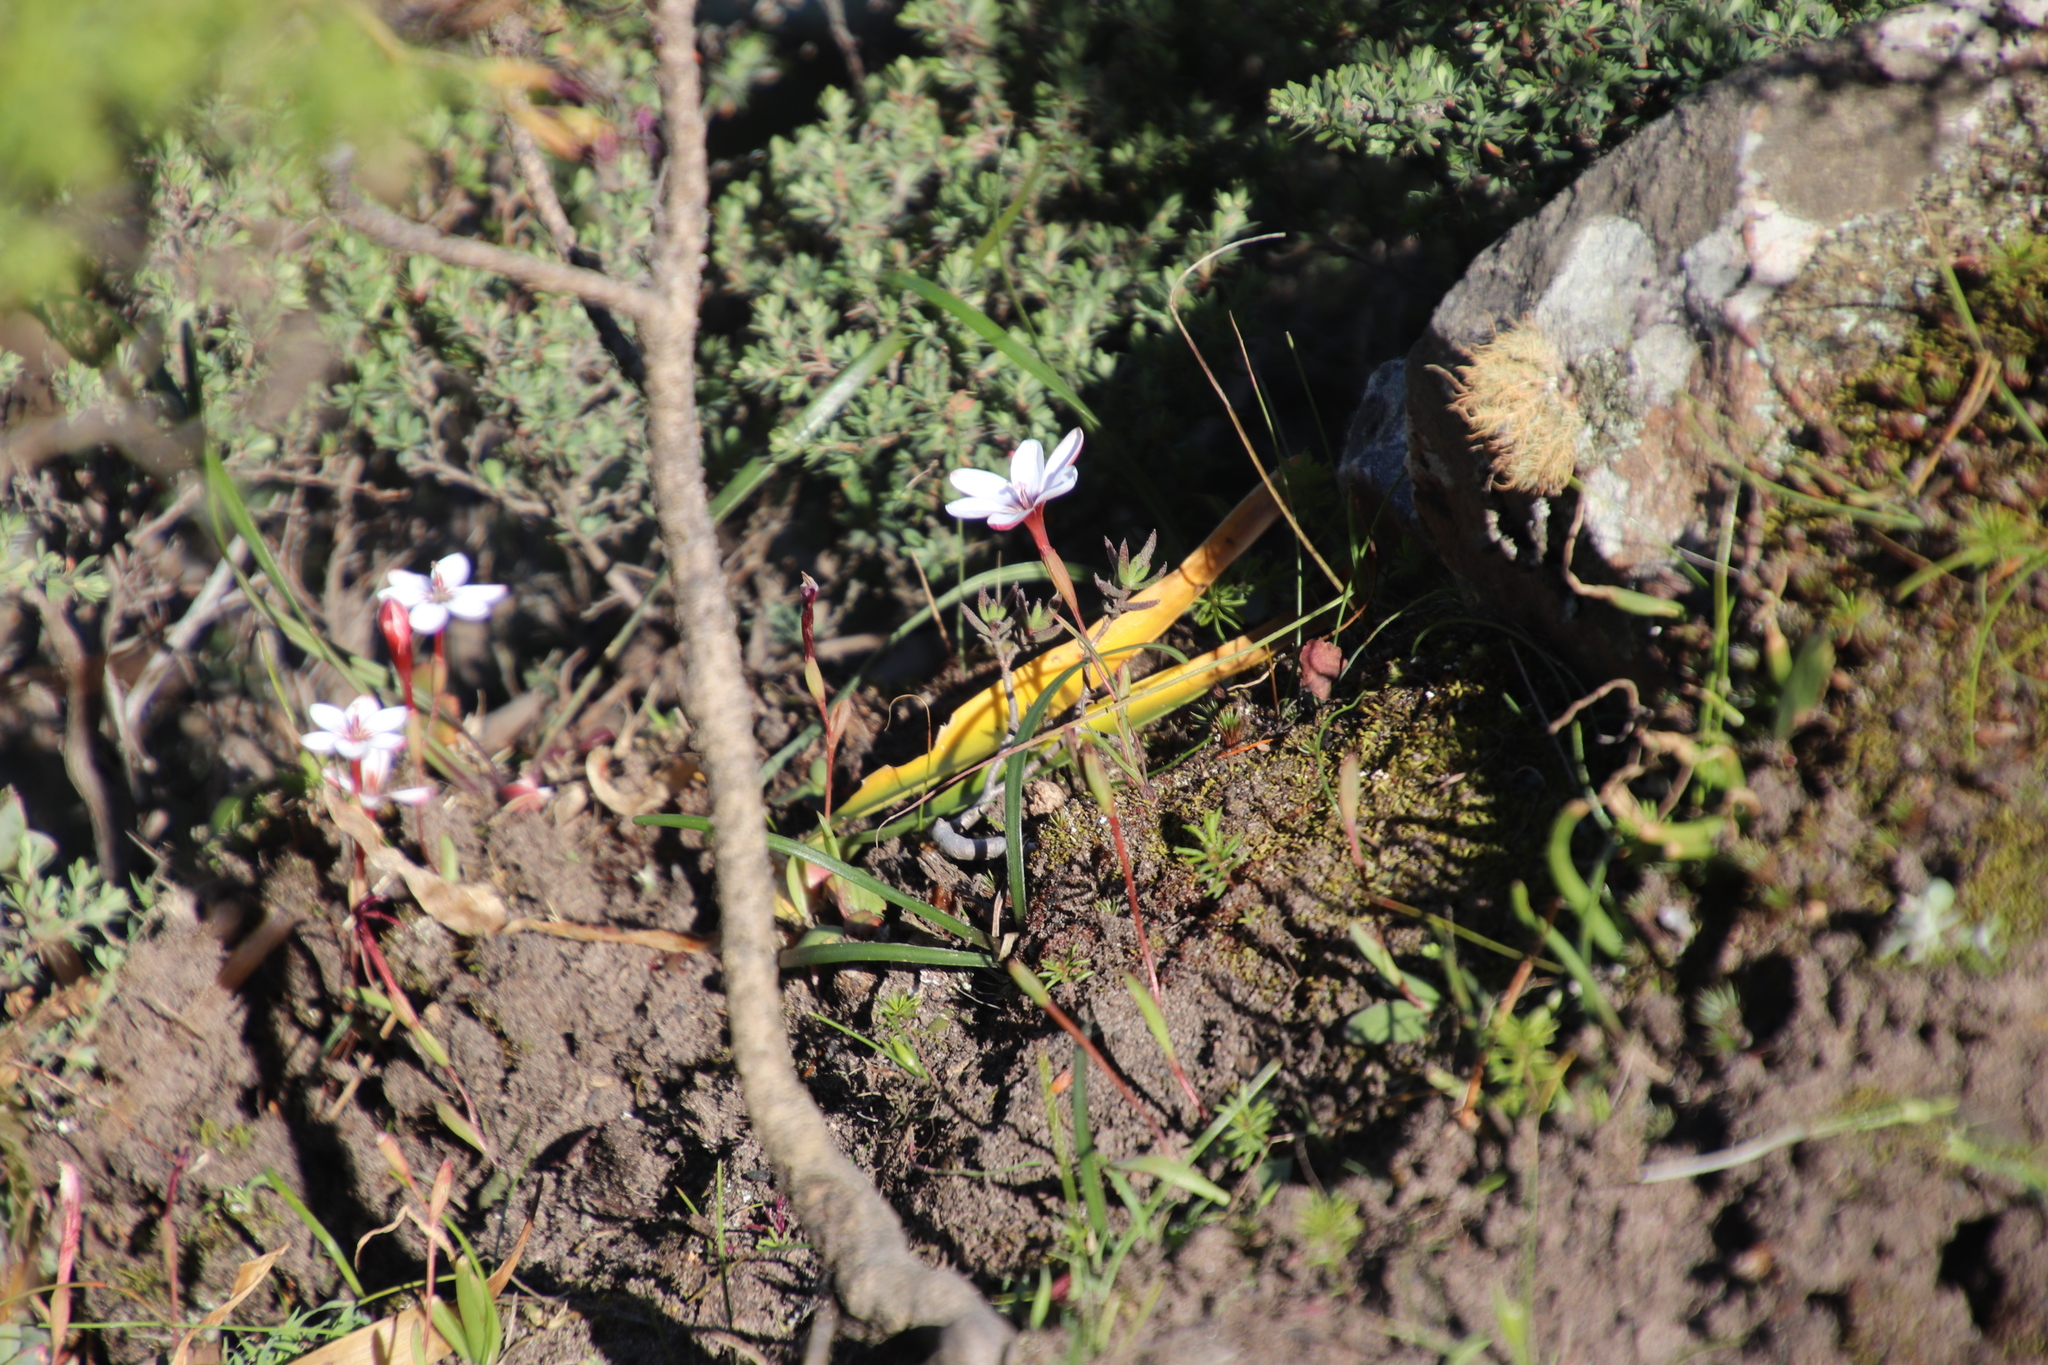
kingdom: Plantae
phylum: Tracheophyta
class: Liliopsida
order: Asparagales
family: Iridaceae
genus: Geissorhiza
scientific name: Geissorhiza ovata
